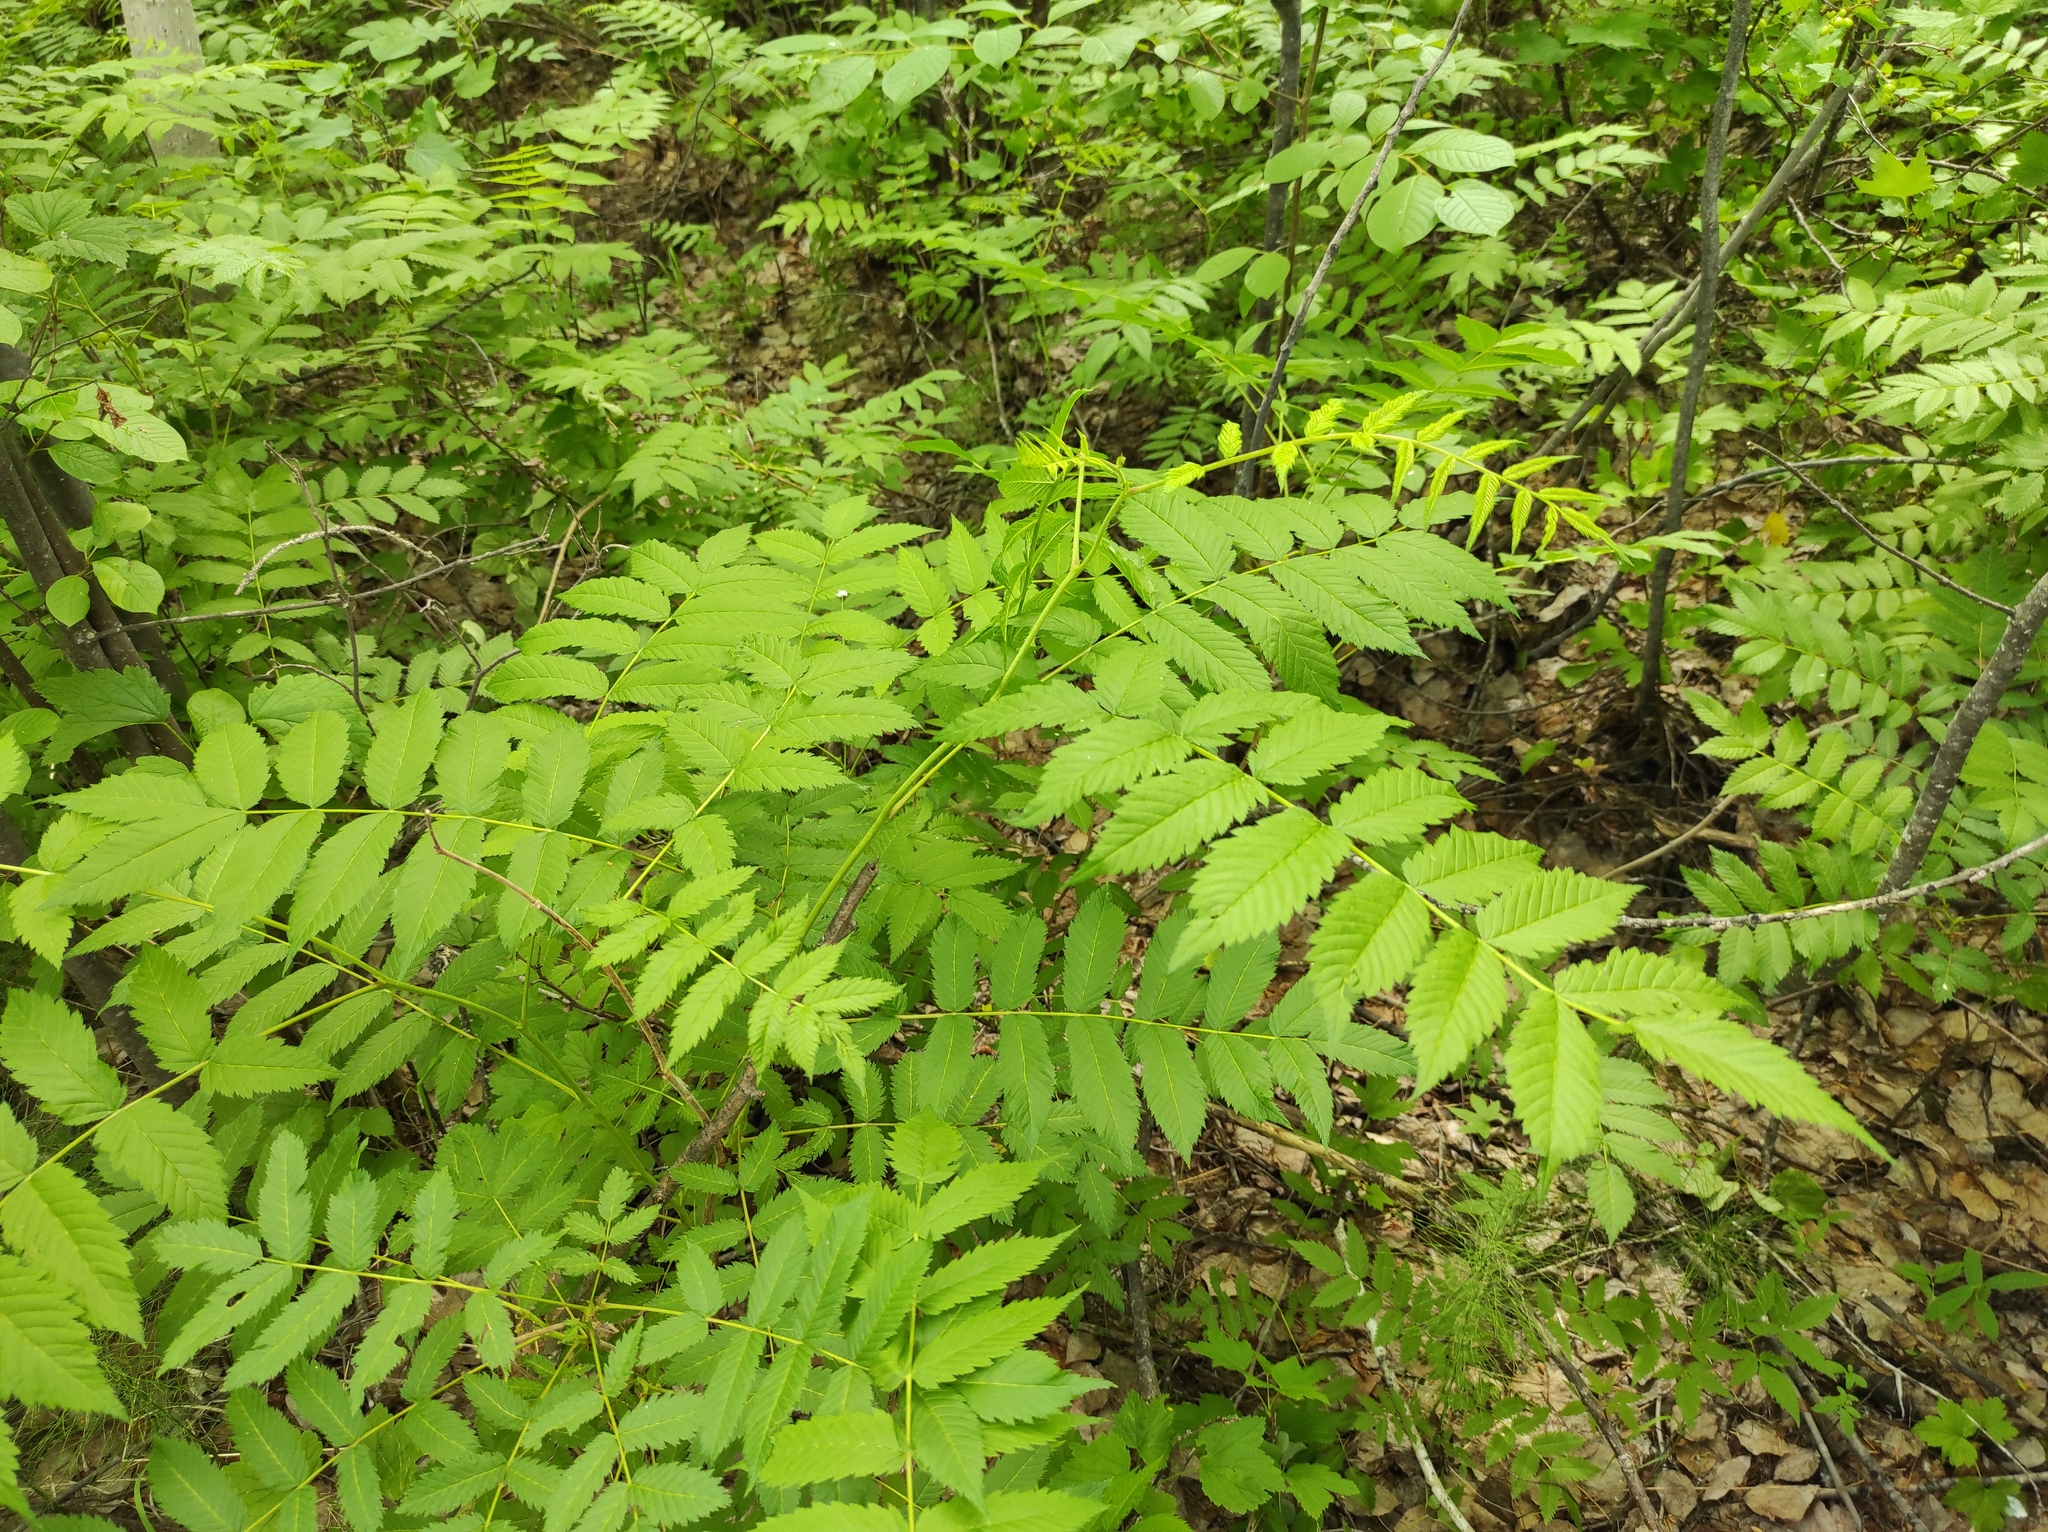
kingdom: Plantae
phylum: Tracheophyta
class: Magnoliopsida
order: Rosales
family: Rosaceae
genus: Sorbaria
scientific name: Sorbaria sorbifolia
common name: False spiraea
